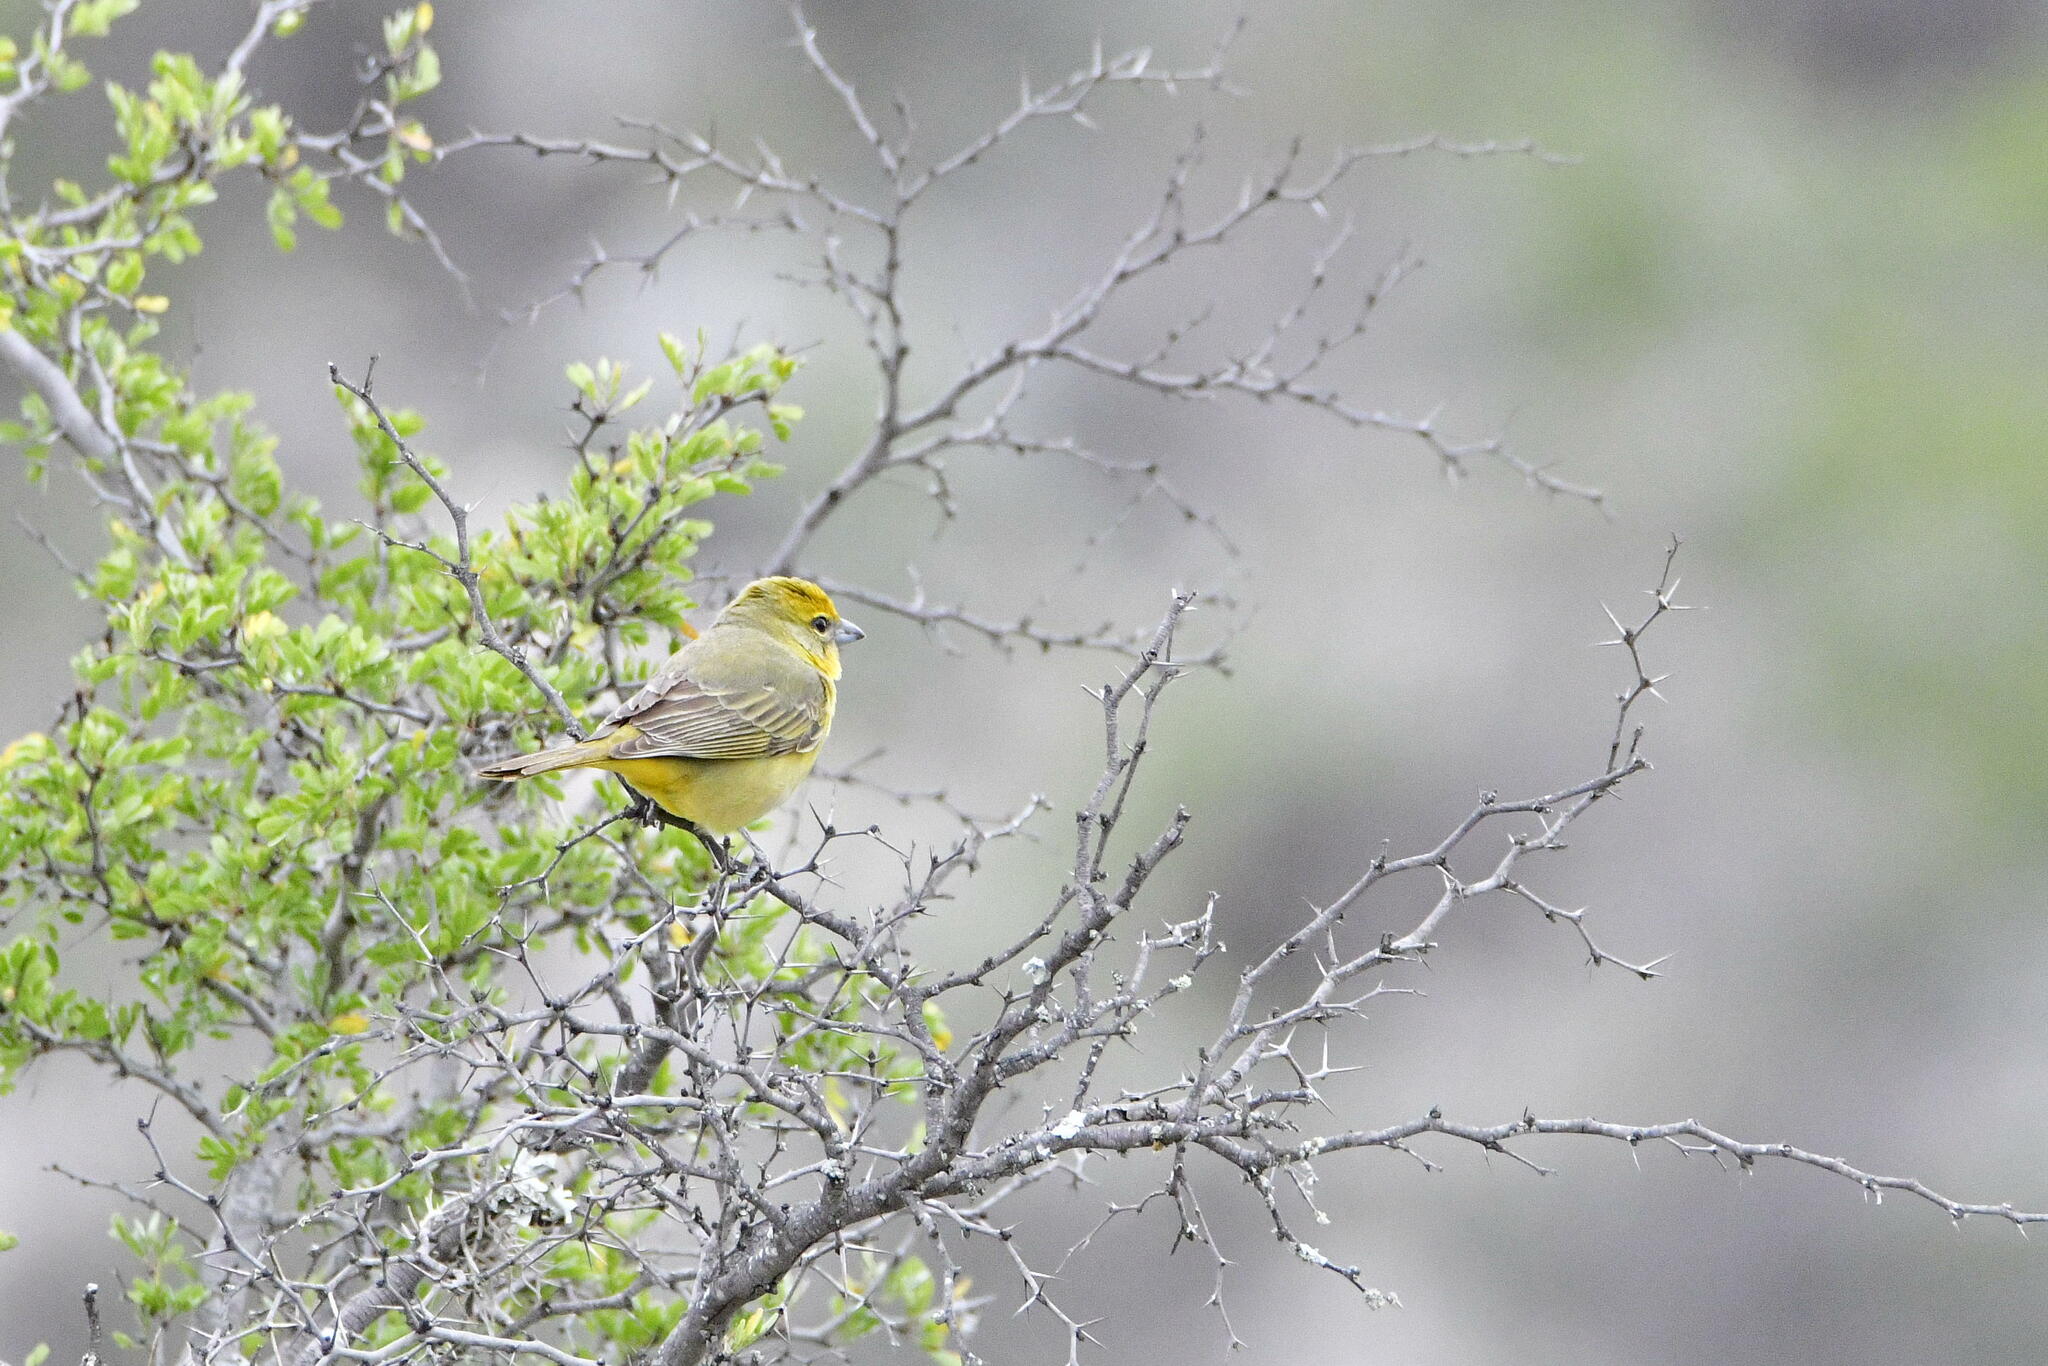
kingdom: Animalia
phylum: Chordata
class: Aves
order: Passeriformes
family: Cardinalidae
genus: Piranga
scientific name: Piranga flava
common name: Red tanager
